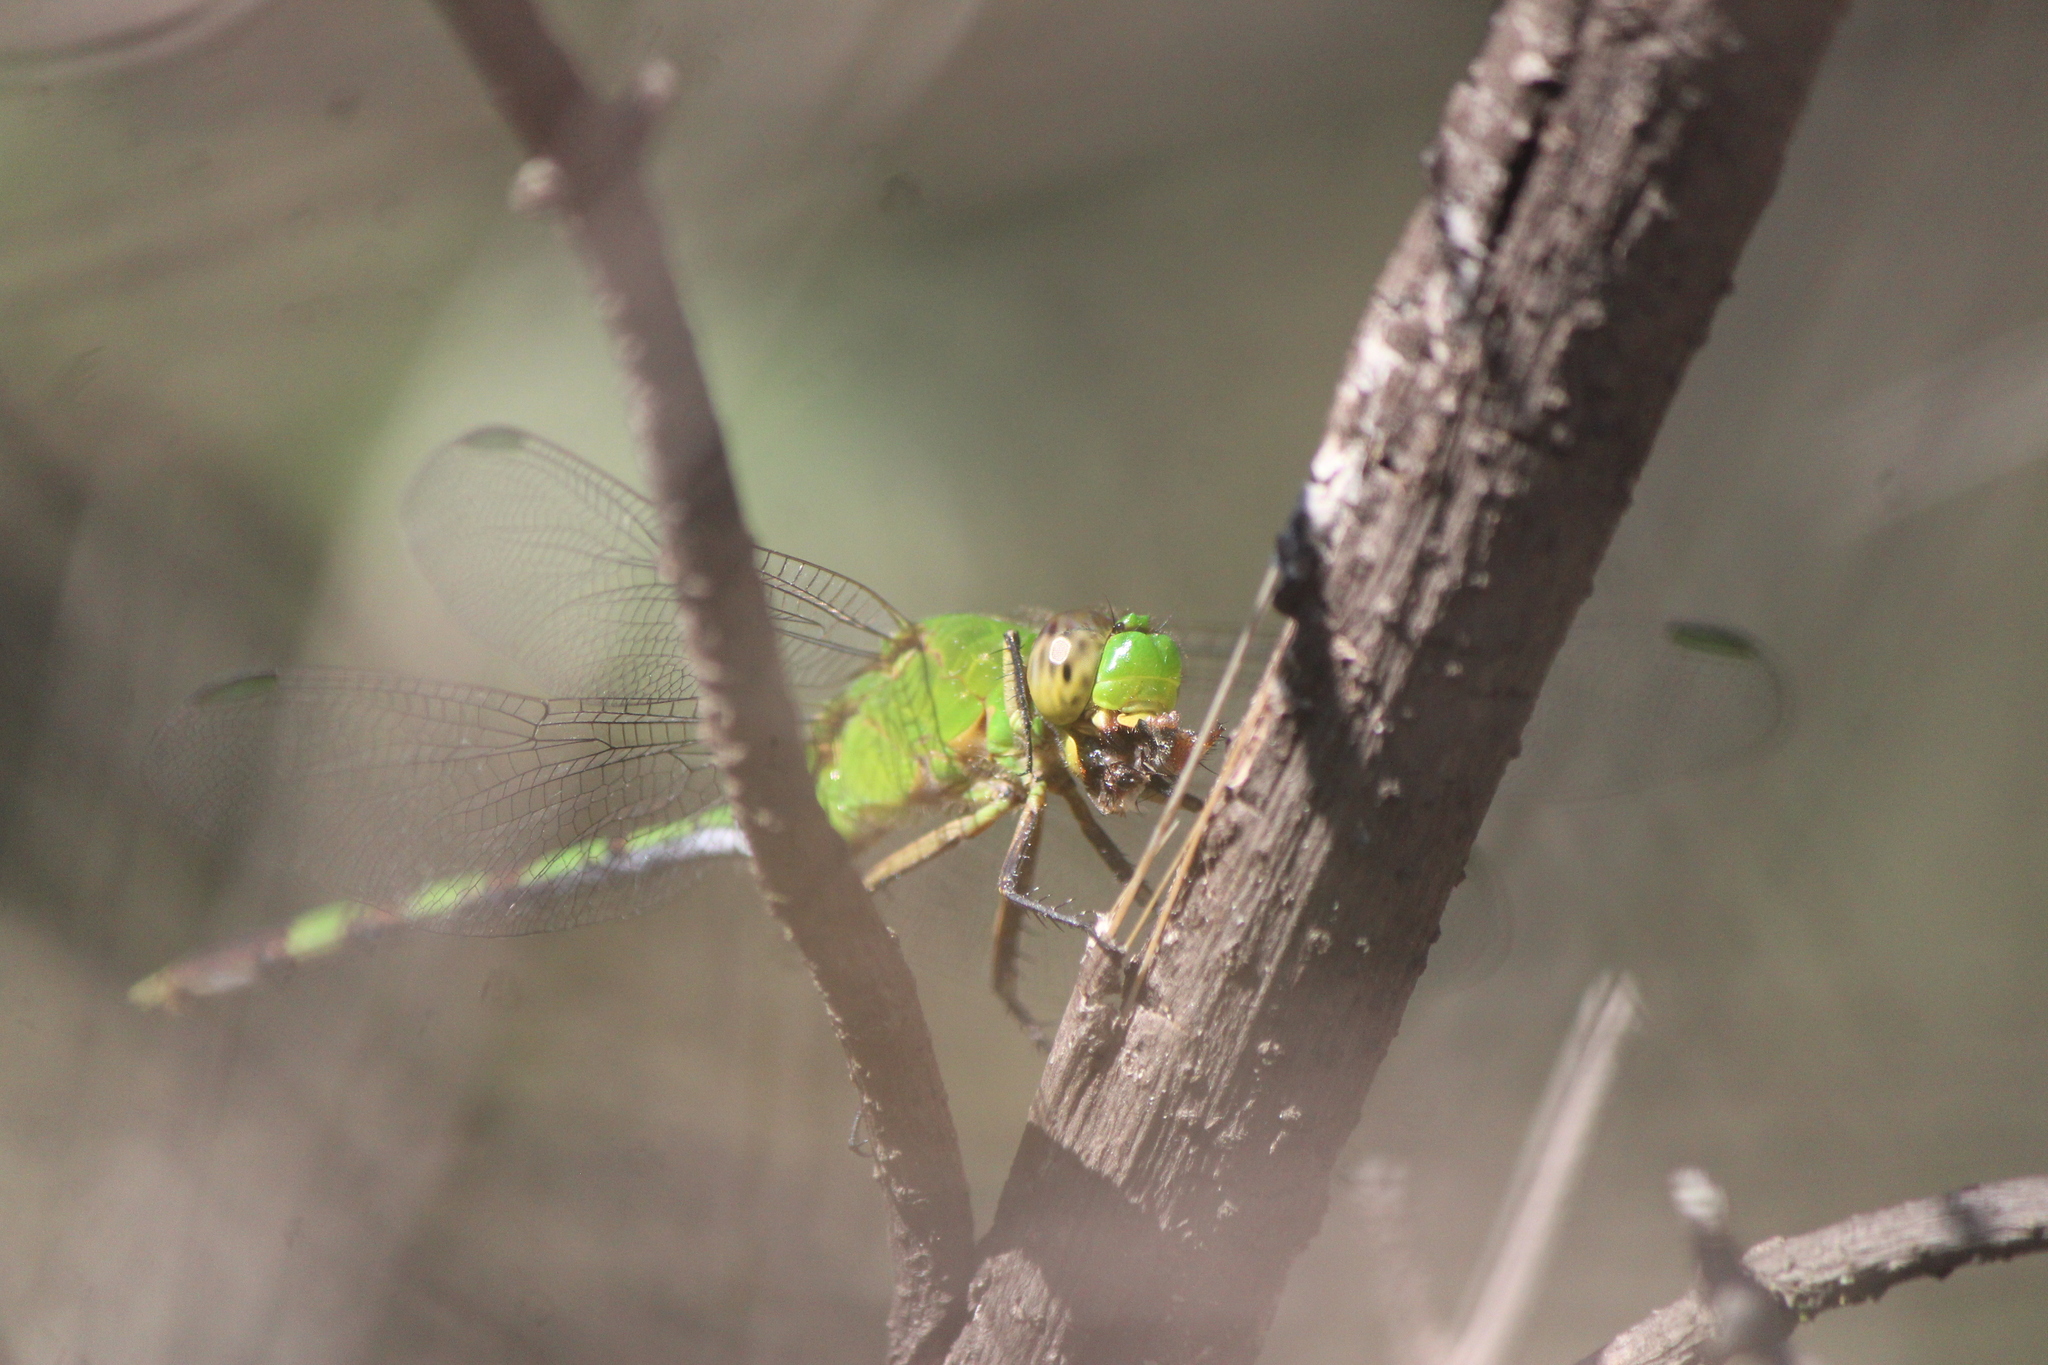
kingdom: Animalia
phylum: Arthropoda
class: Insecta
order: Odonata
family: Libellulidae
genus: Erythemis
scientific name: Erythemis vesiculosa
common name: Great pondhawk
